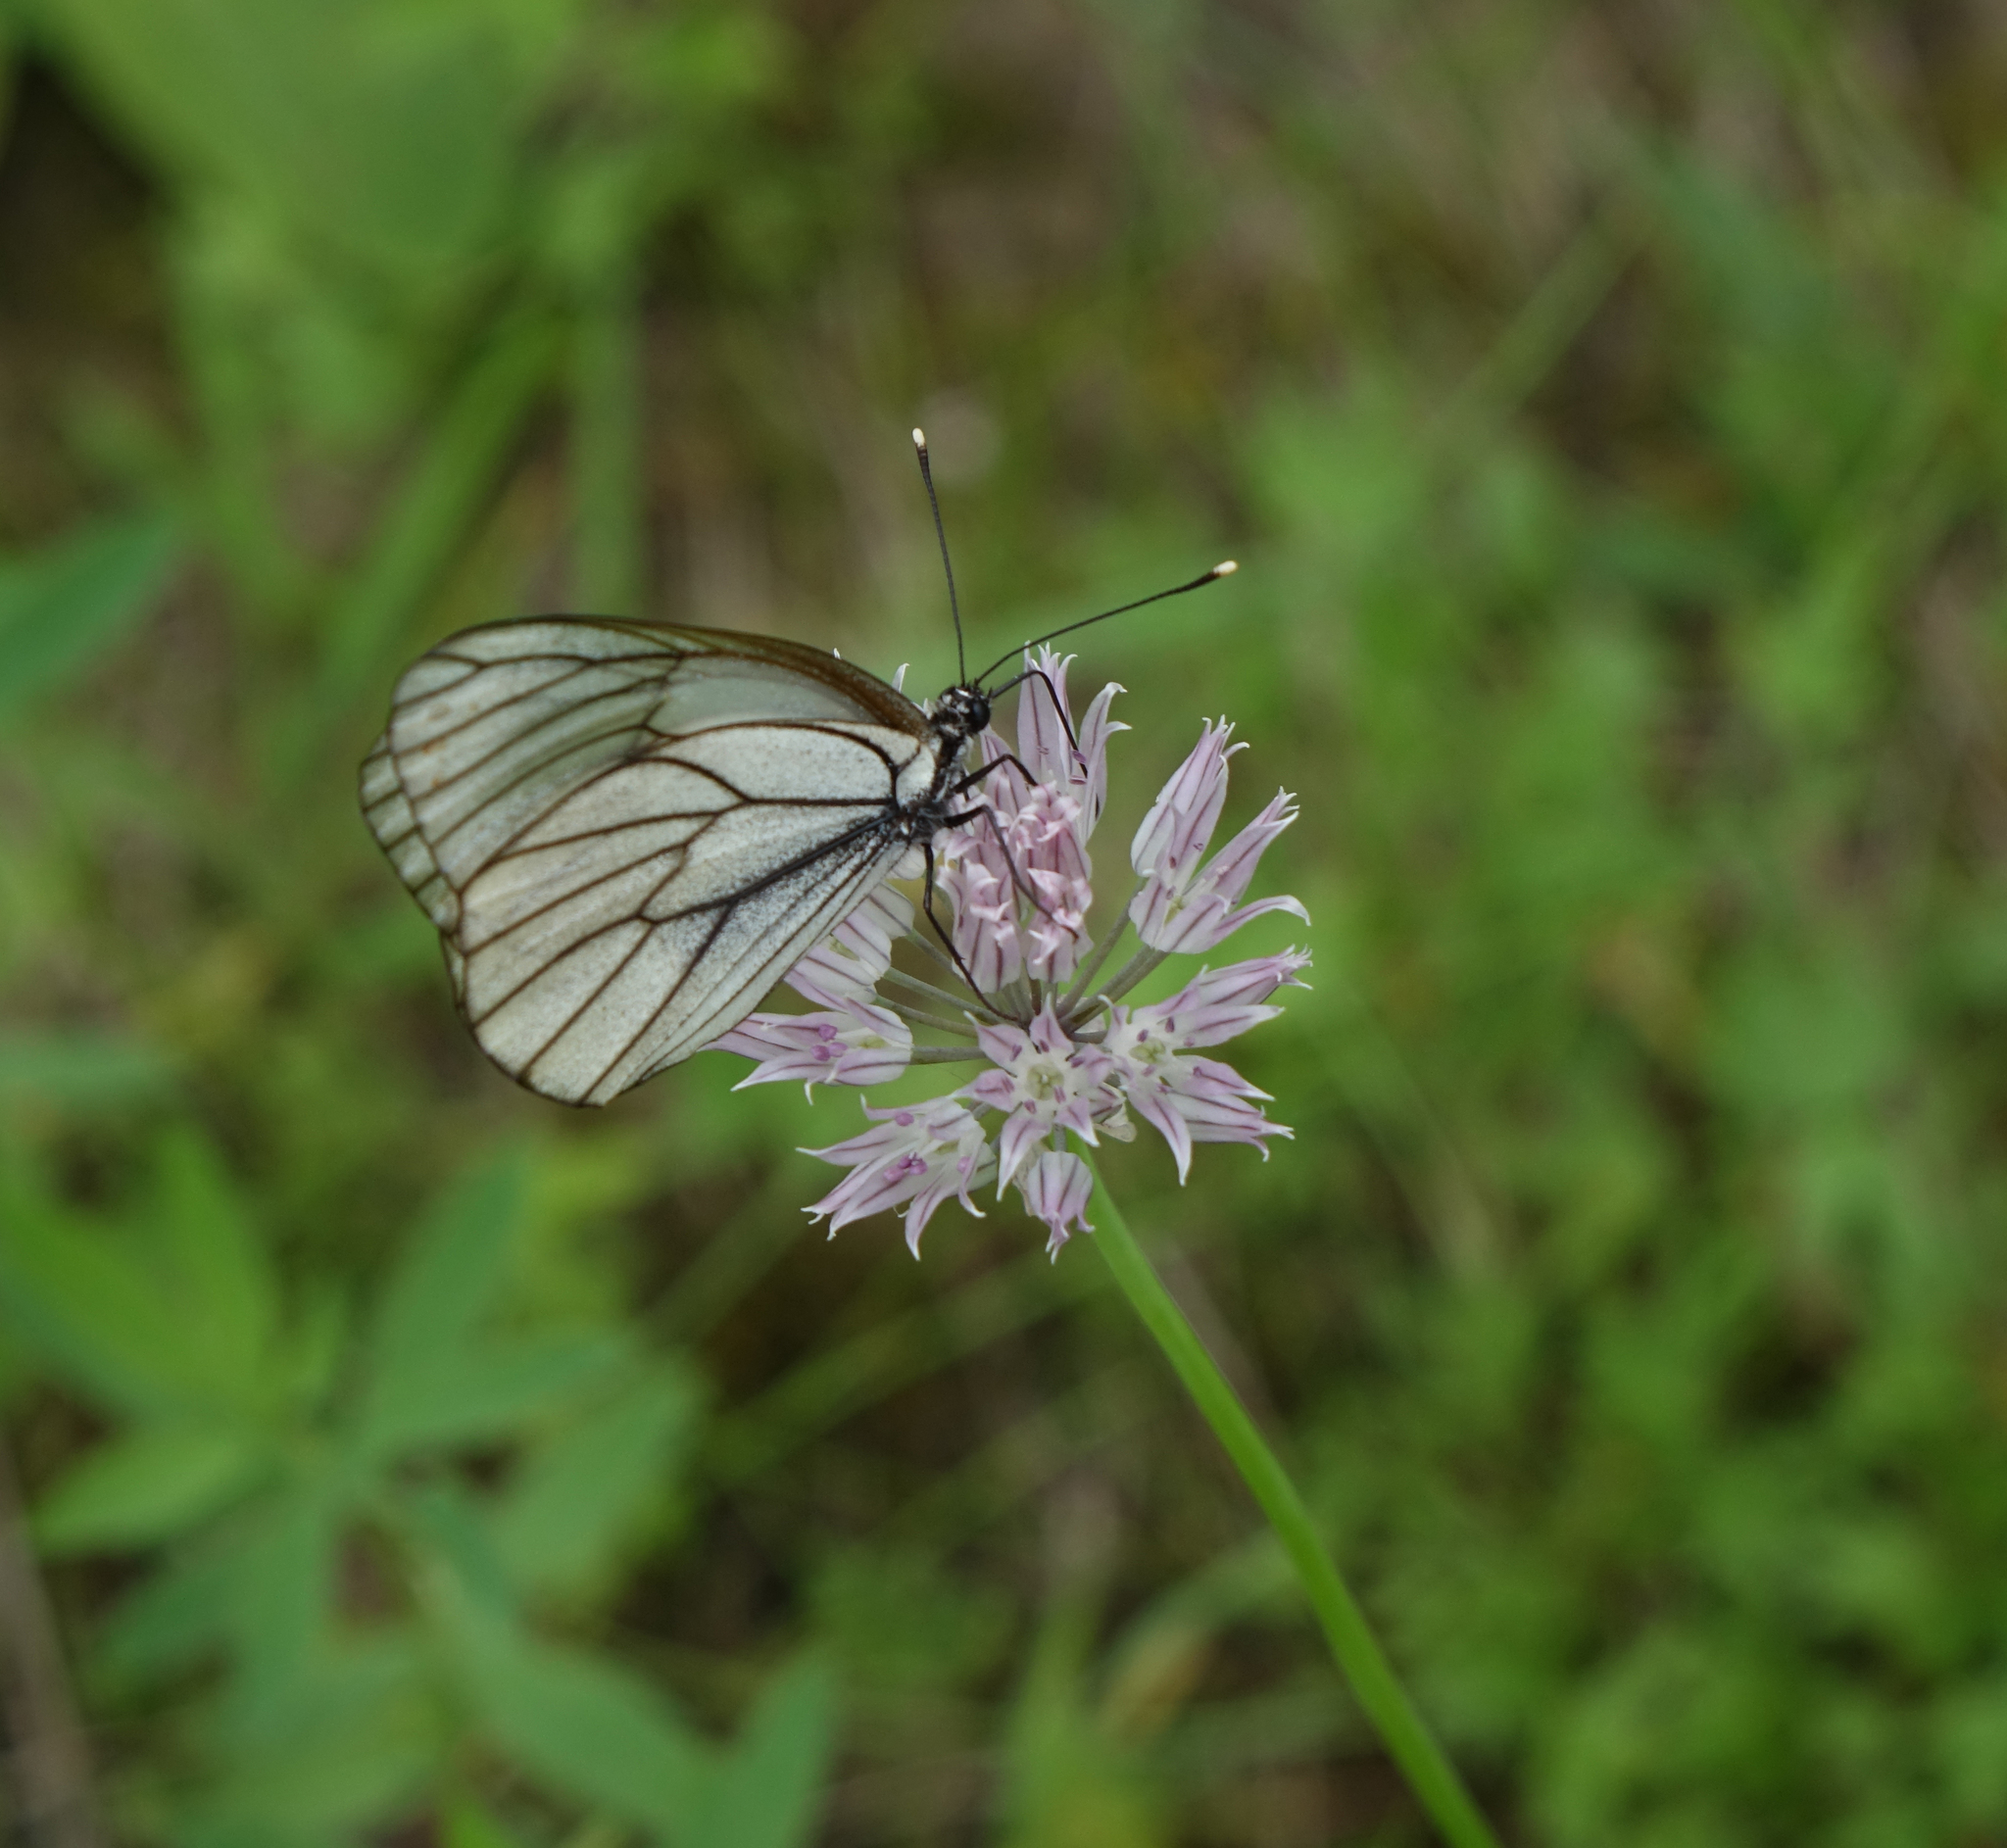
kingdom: Animalia
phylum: Arthropoda
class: Insecta
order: Lepidoptera
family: Pieridae
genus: Aporia
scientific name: Aporia crataegi
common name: Black-veined white
